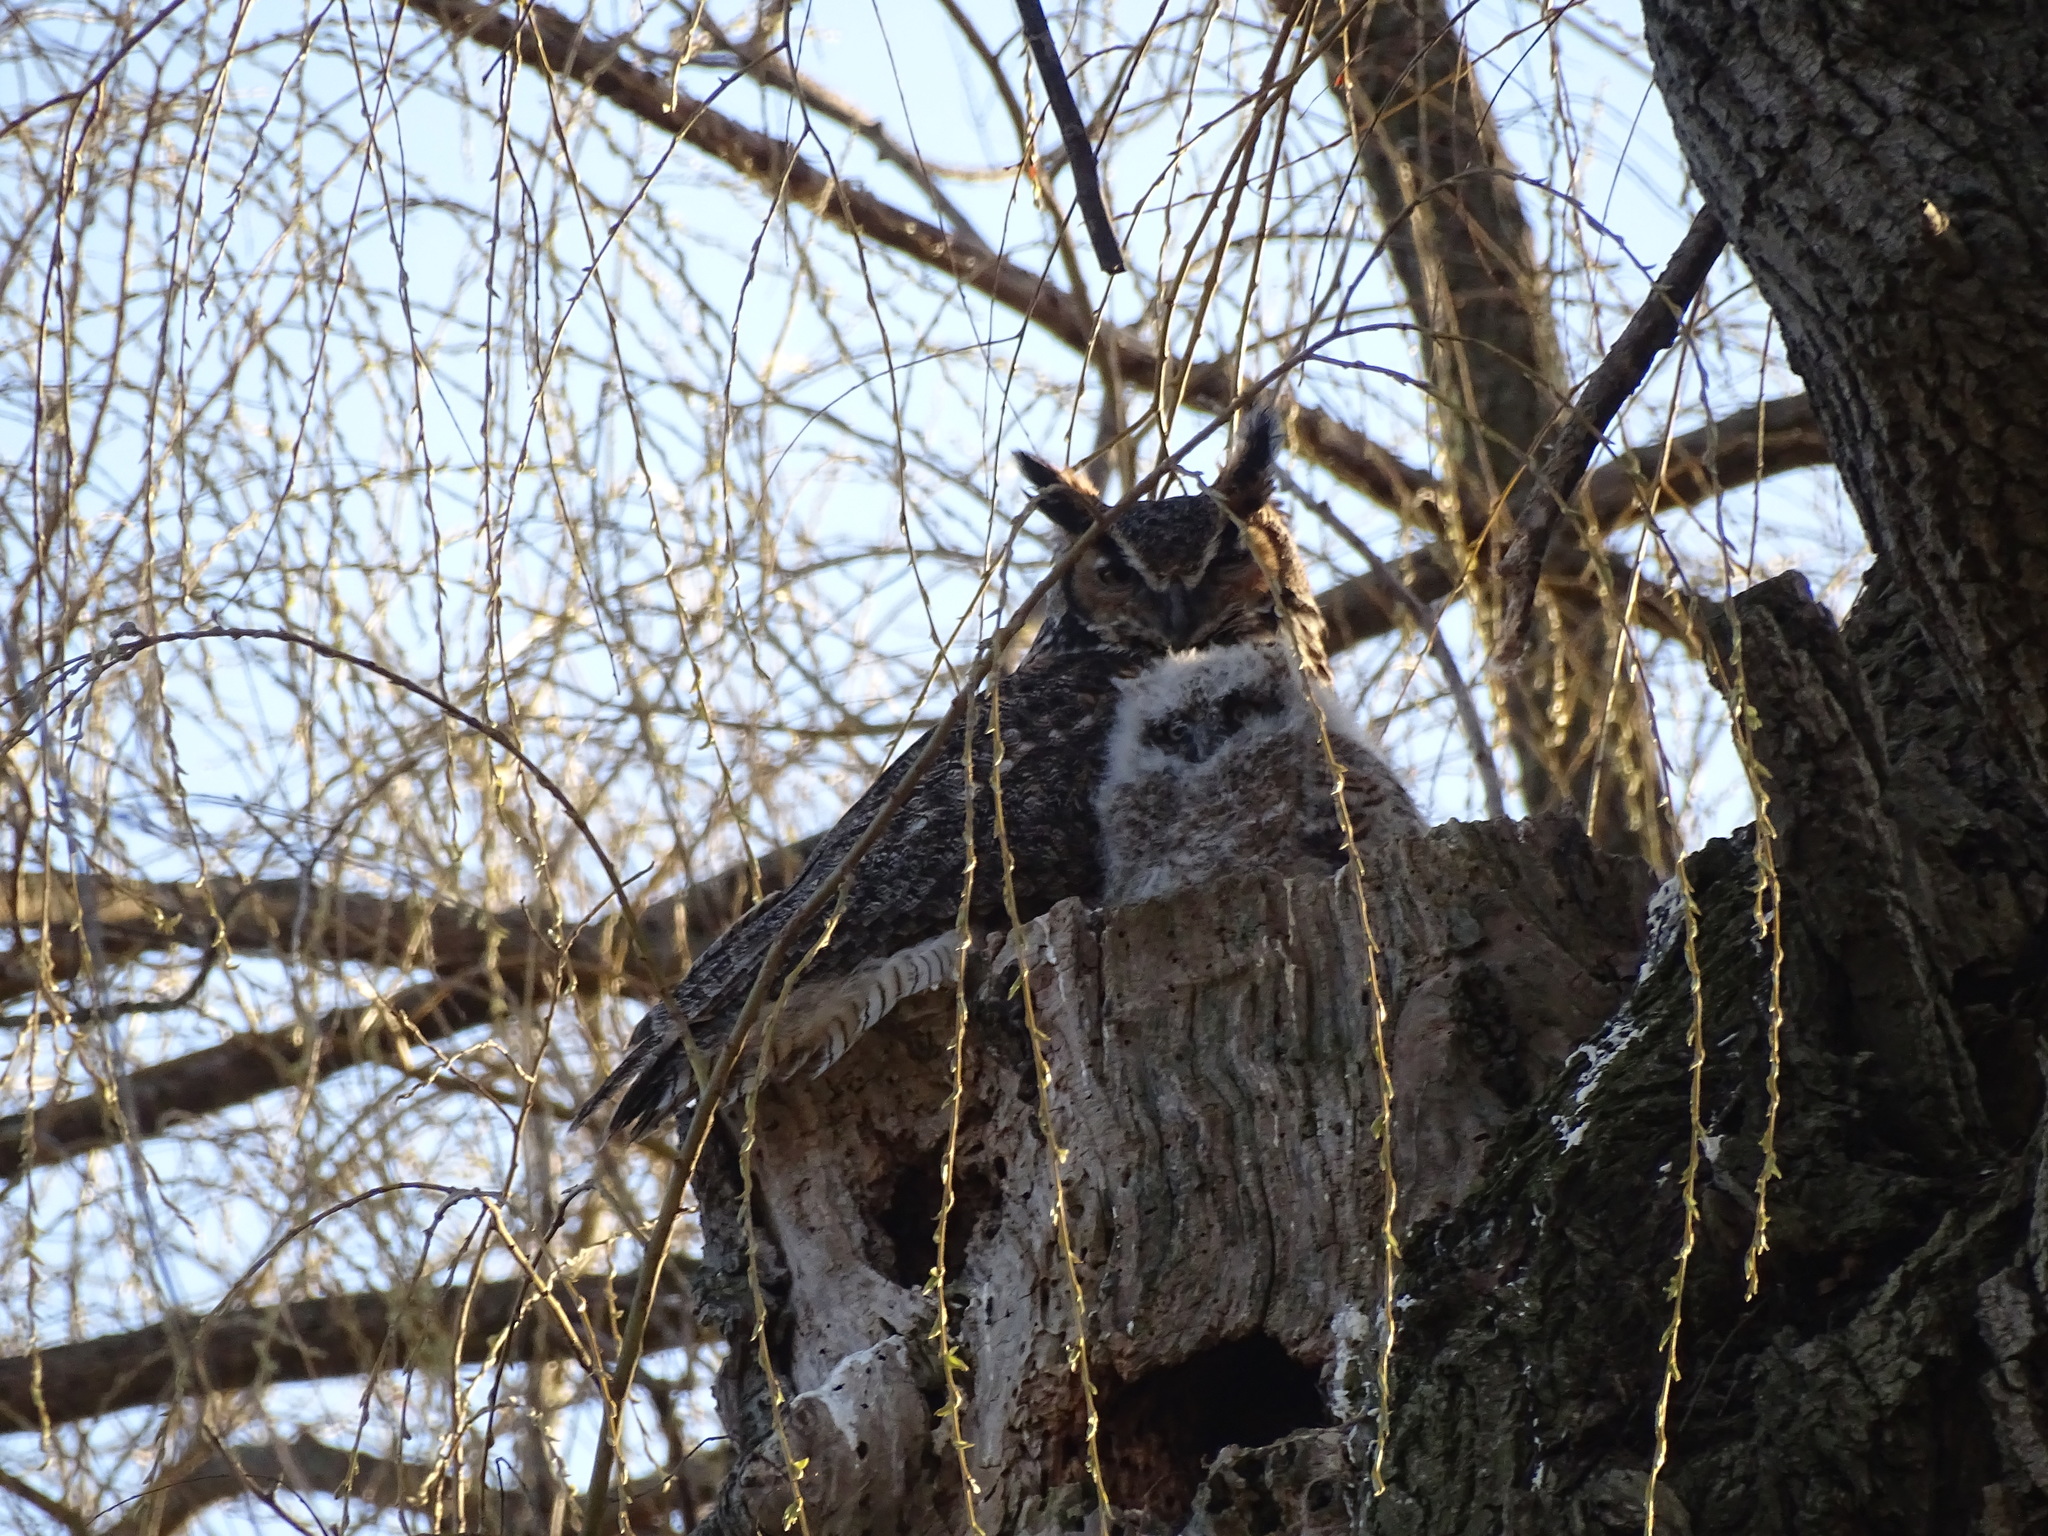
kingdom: Animalia
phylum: Chordata
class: Aves
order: Strigiformes
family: Strigidae
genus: Bubo
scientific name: Bubo virginianus
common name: Great horned owl
